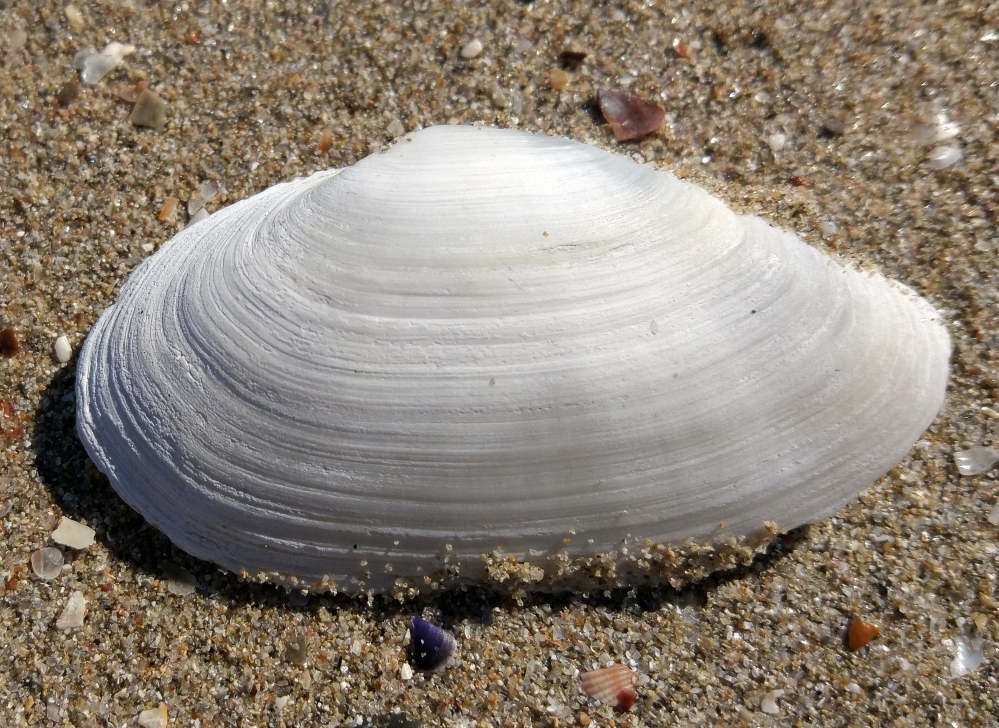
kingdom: Animalia
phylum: Mollusca
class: Bivalvia
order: Myida
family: Myidae
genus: Mya
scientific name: Mya arenaria
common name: Soft-shelled clam
